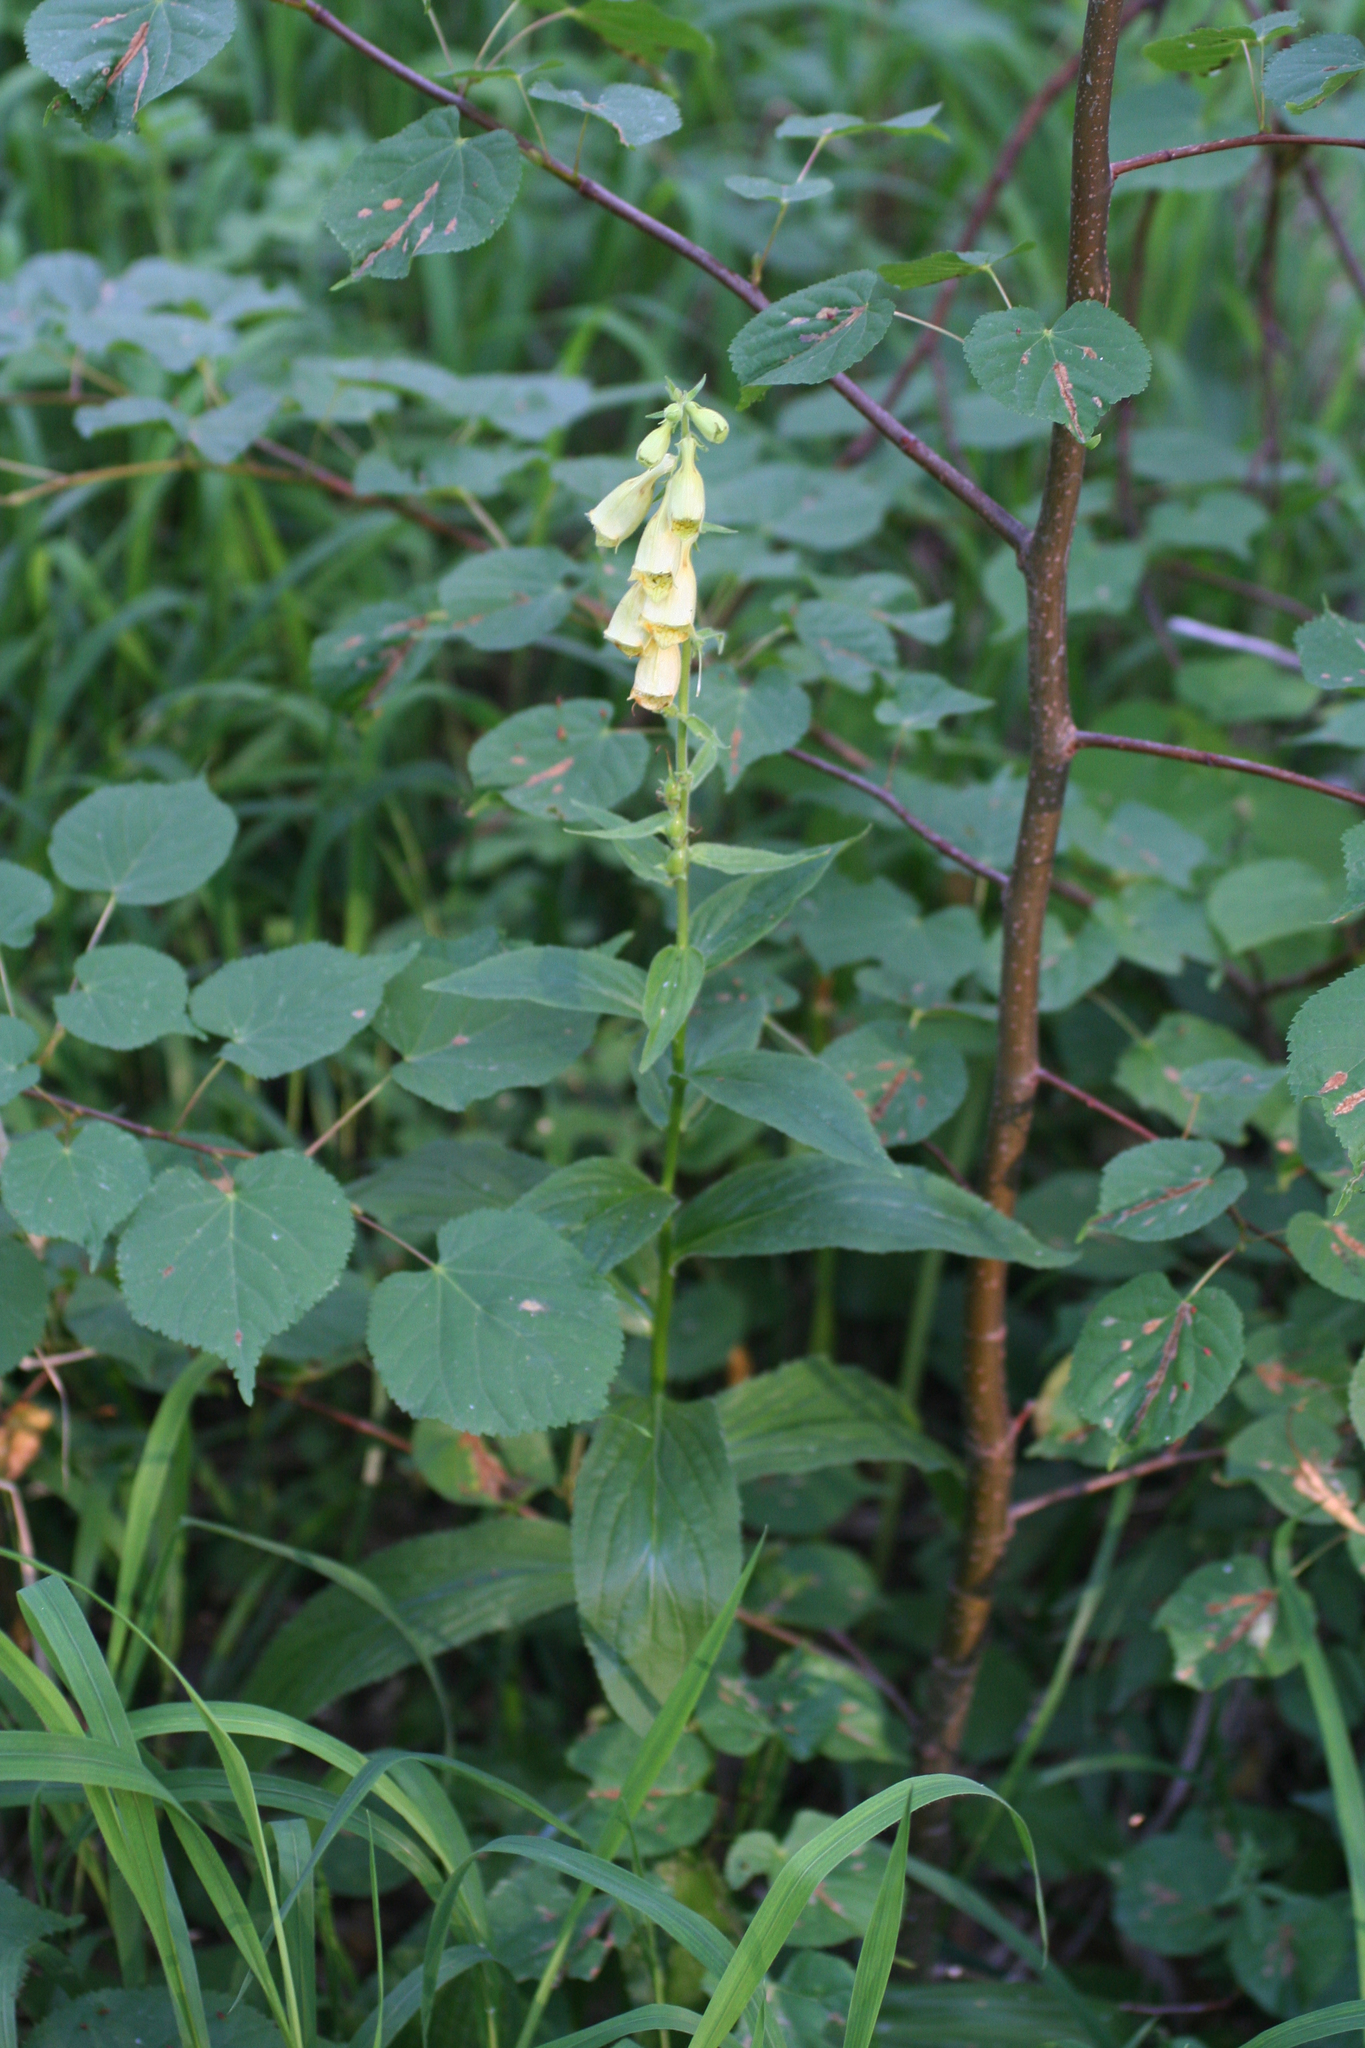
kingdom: Plantae
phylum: Tracheophyta
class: Magnoliopsida
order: Lamiales
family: Plantaginaceae
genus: Digitalis
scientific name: Digitalis grandiflora
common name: Yellow foxglove
